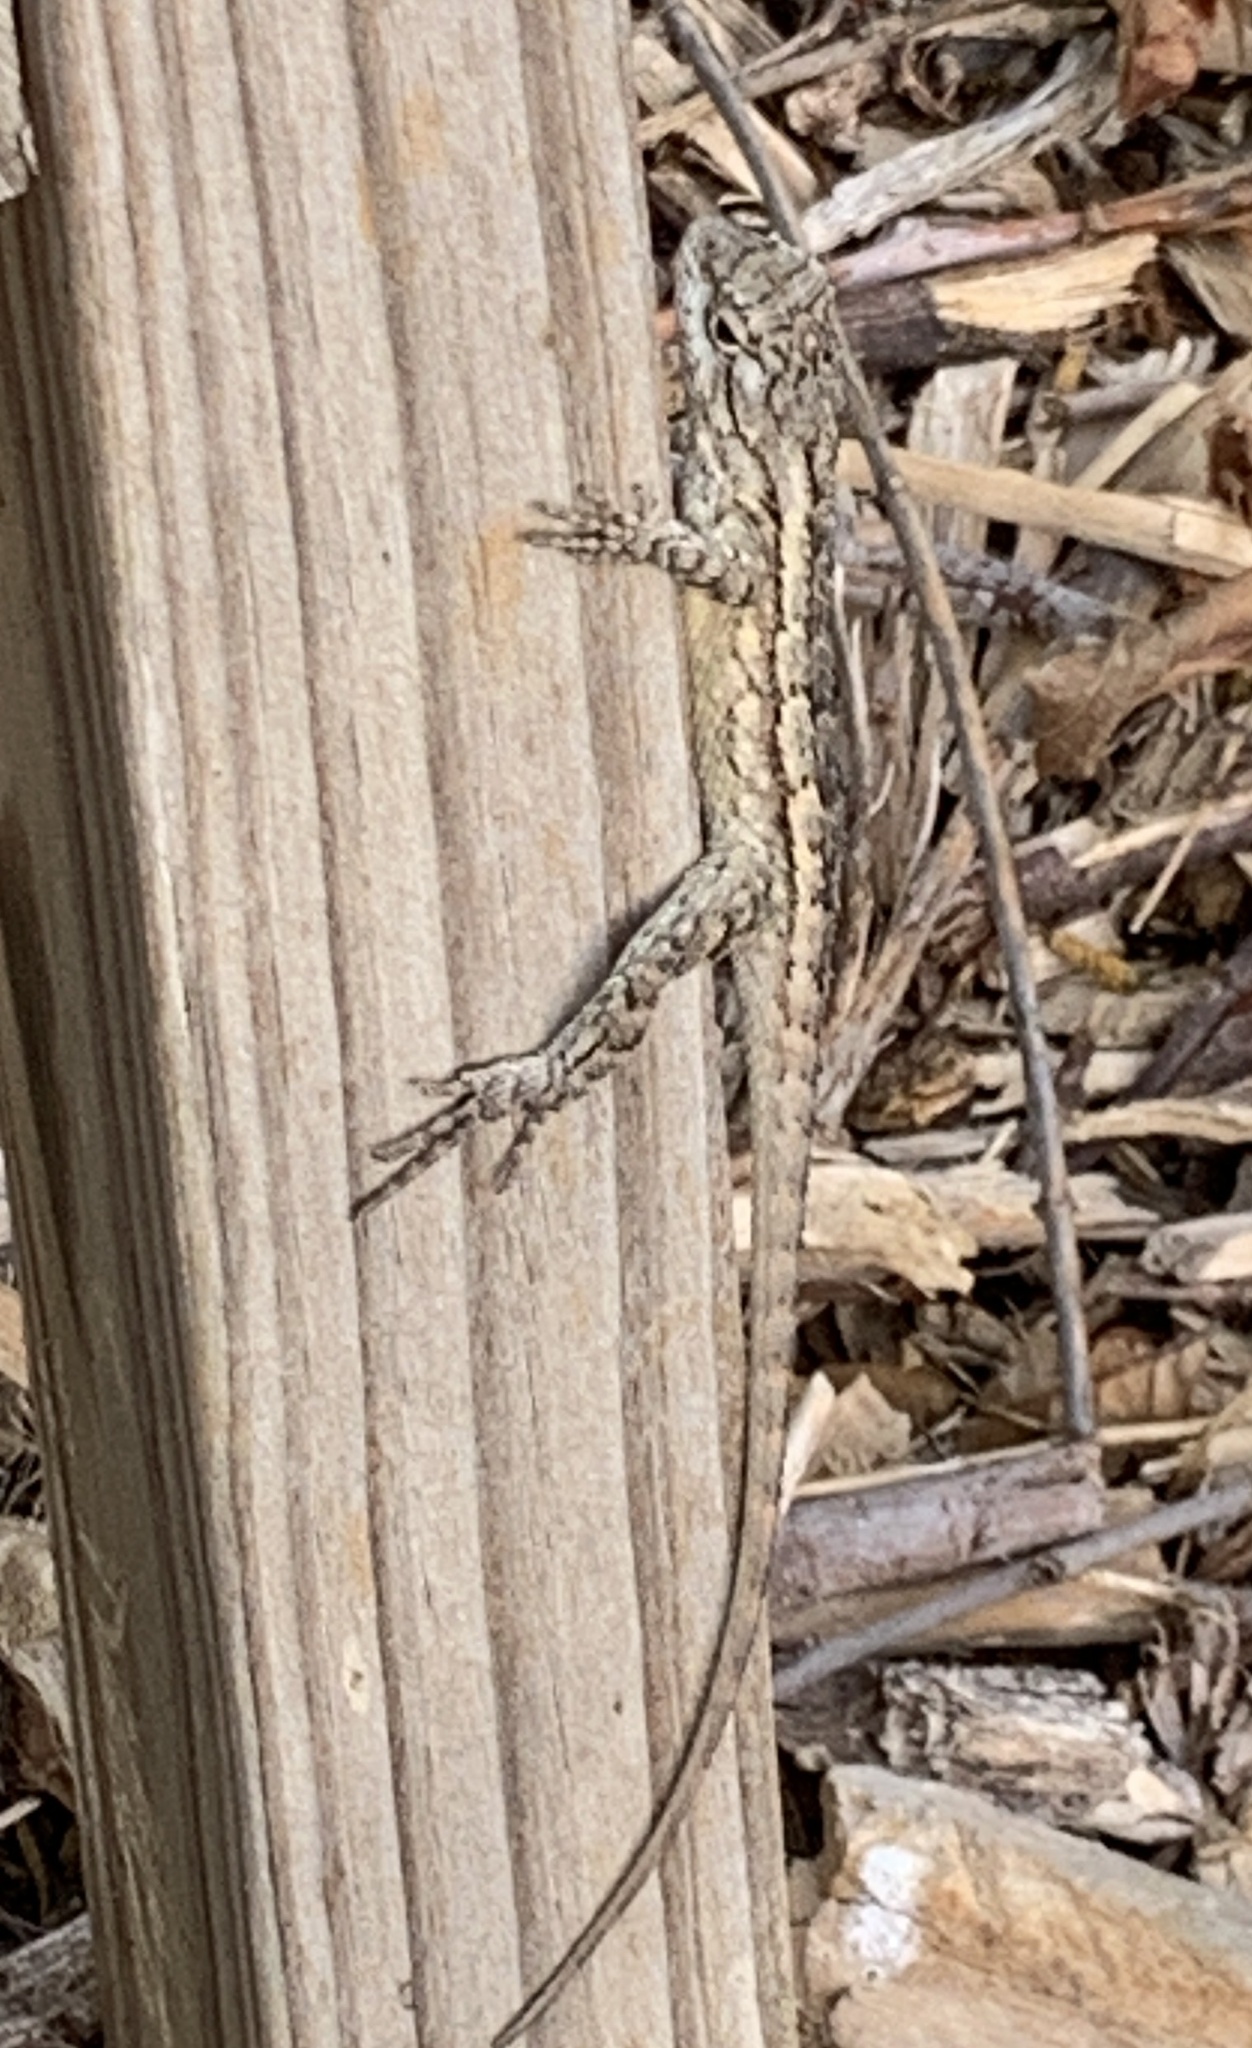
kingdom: Animalia
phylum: Chordata
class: Squamata
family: Phrynosomatidae
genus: Sceloporus
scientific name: Sceloporus olivaceus
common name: Texas spiny lizard
